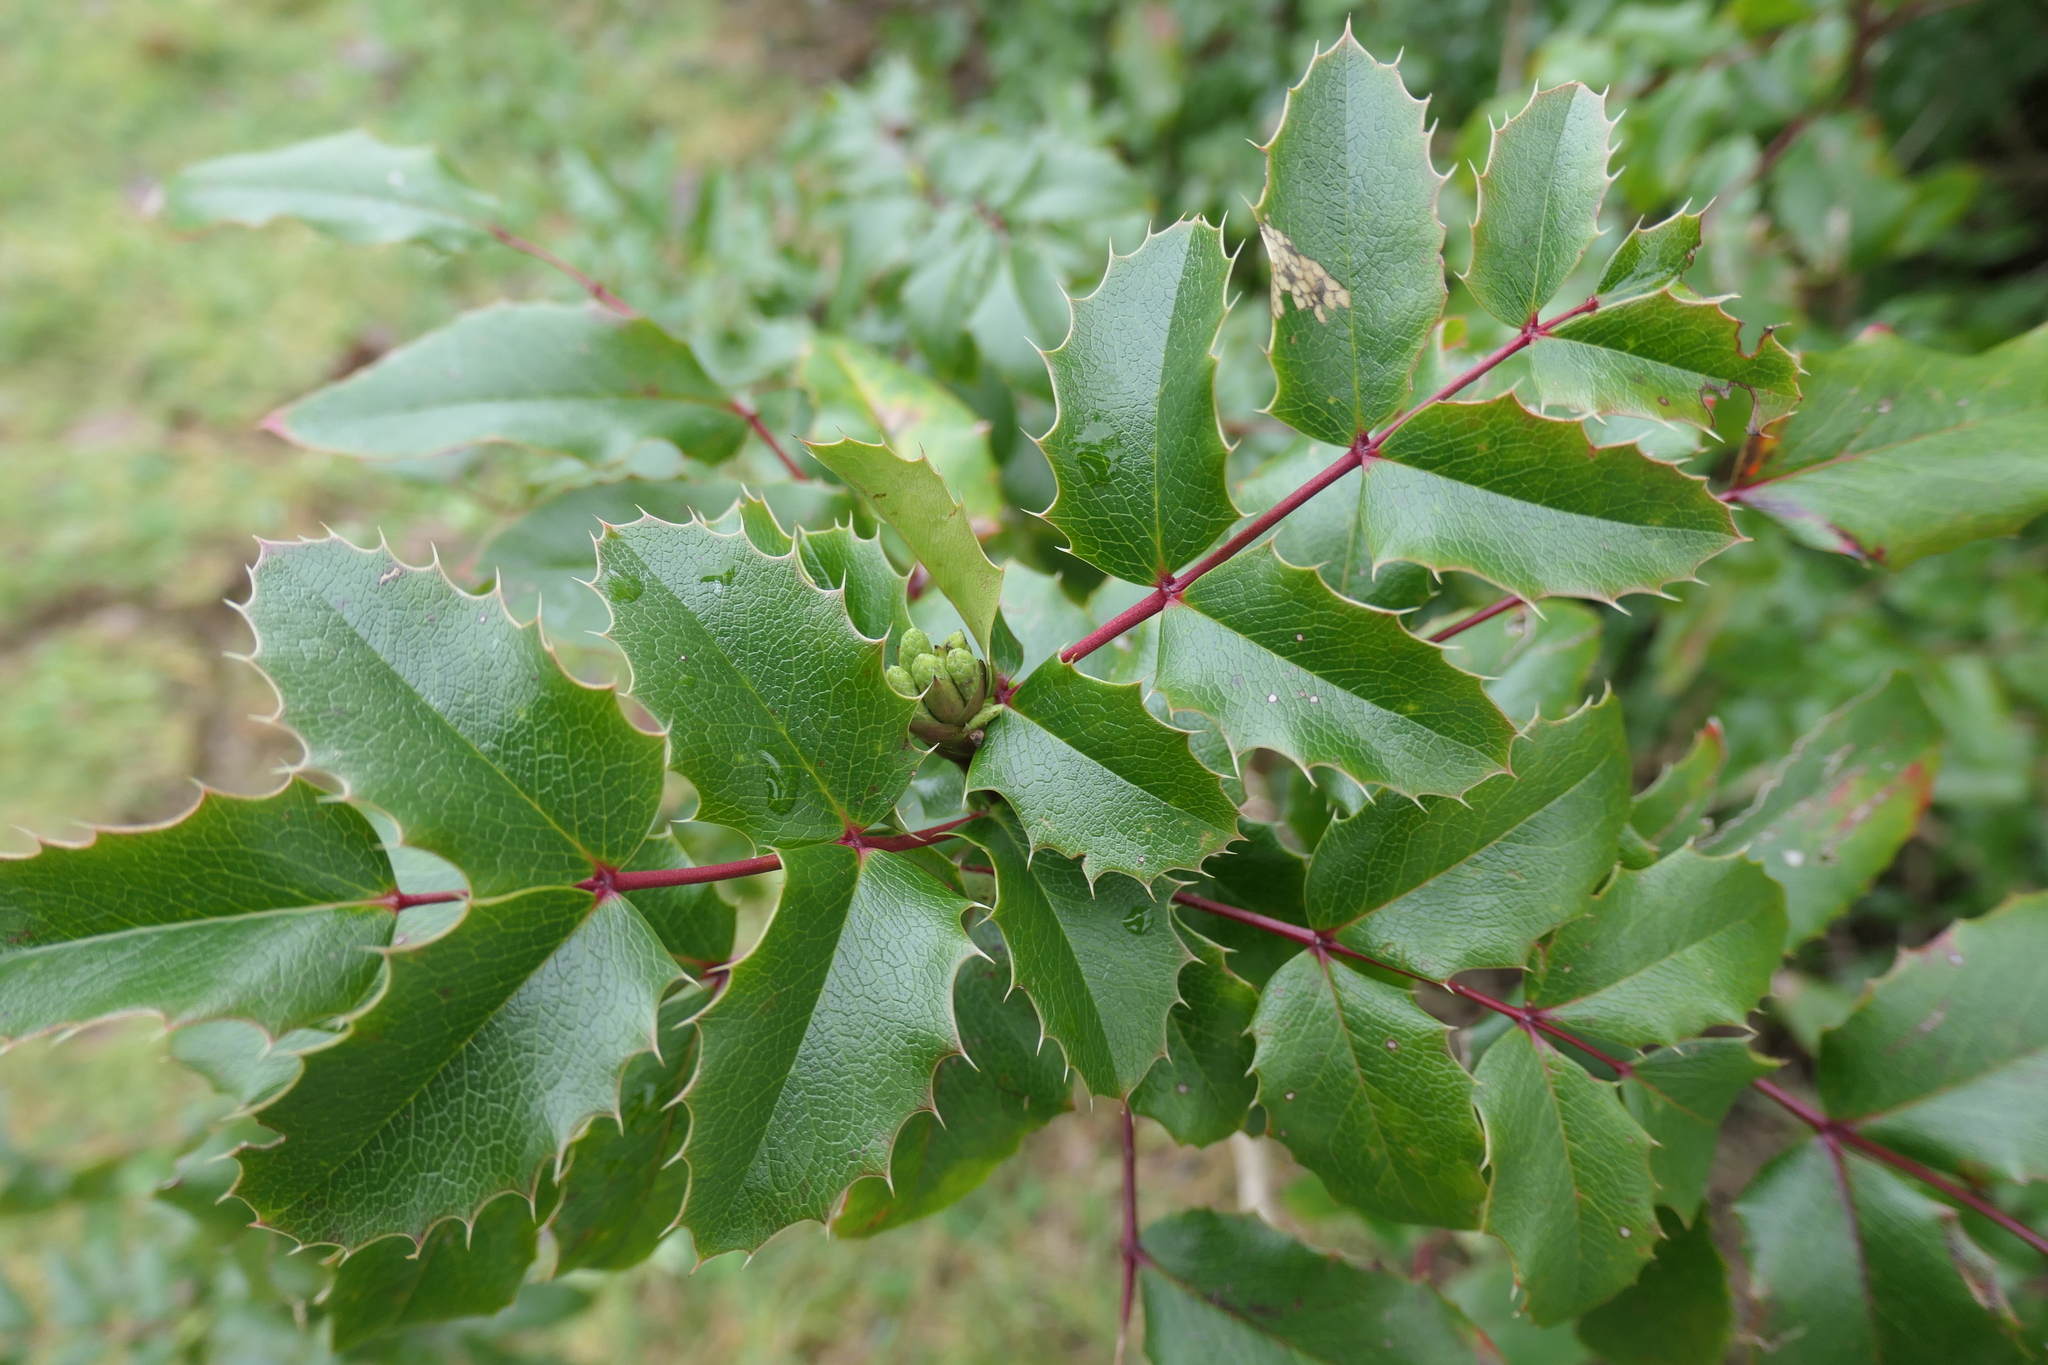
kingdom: Plantae
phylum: Tracheophyta
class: Magnoliopsida
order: Ranunculales
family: Berberidaceae
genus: Mahonia
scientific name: Mahonia aquifolium
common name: Oregon-grape
